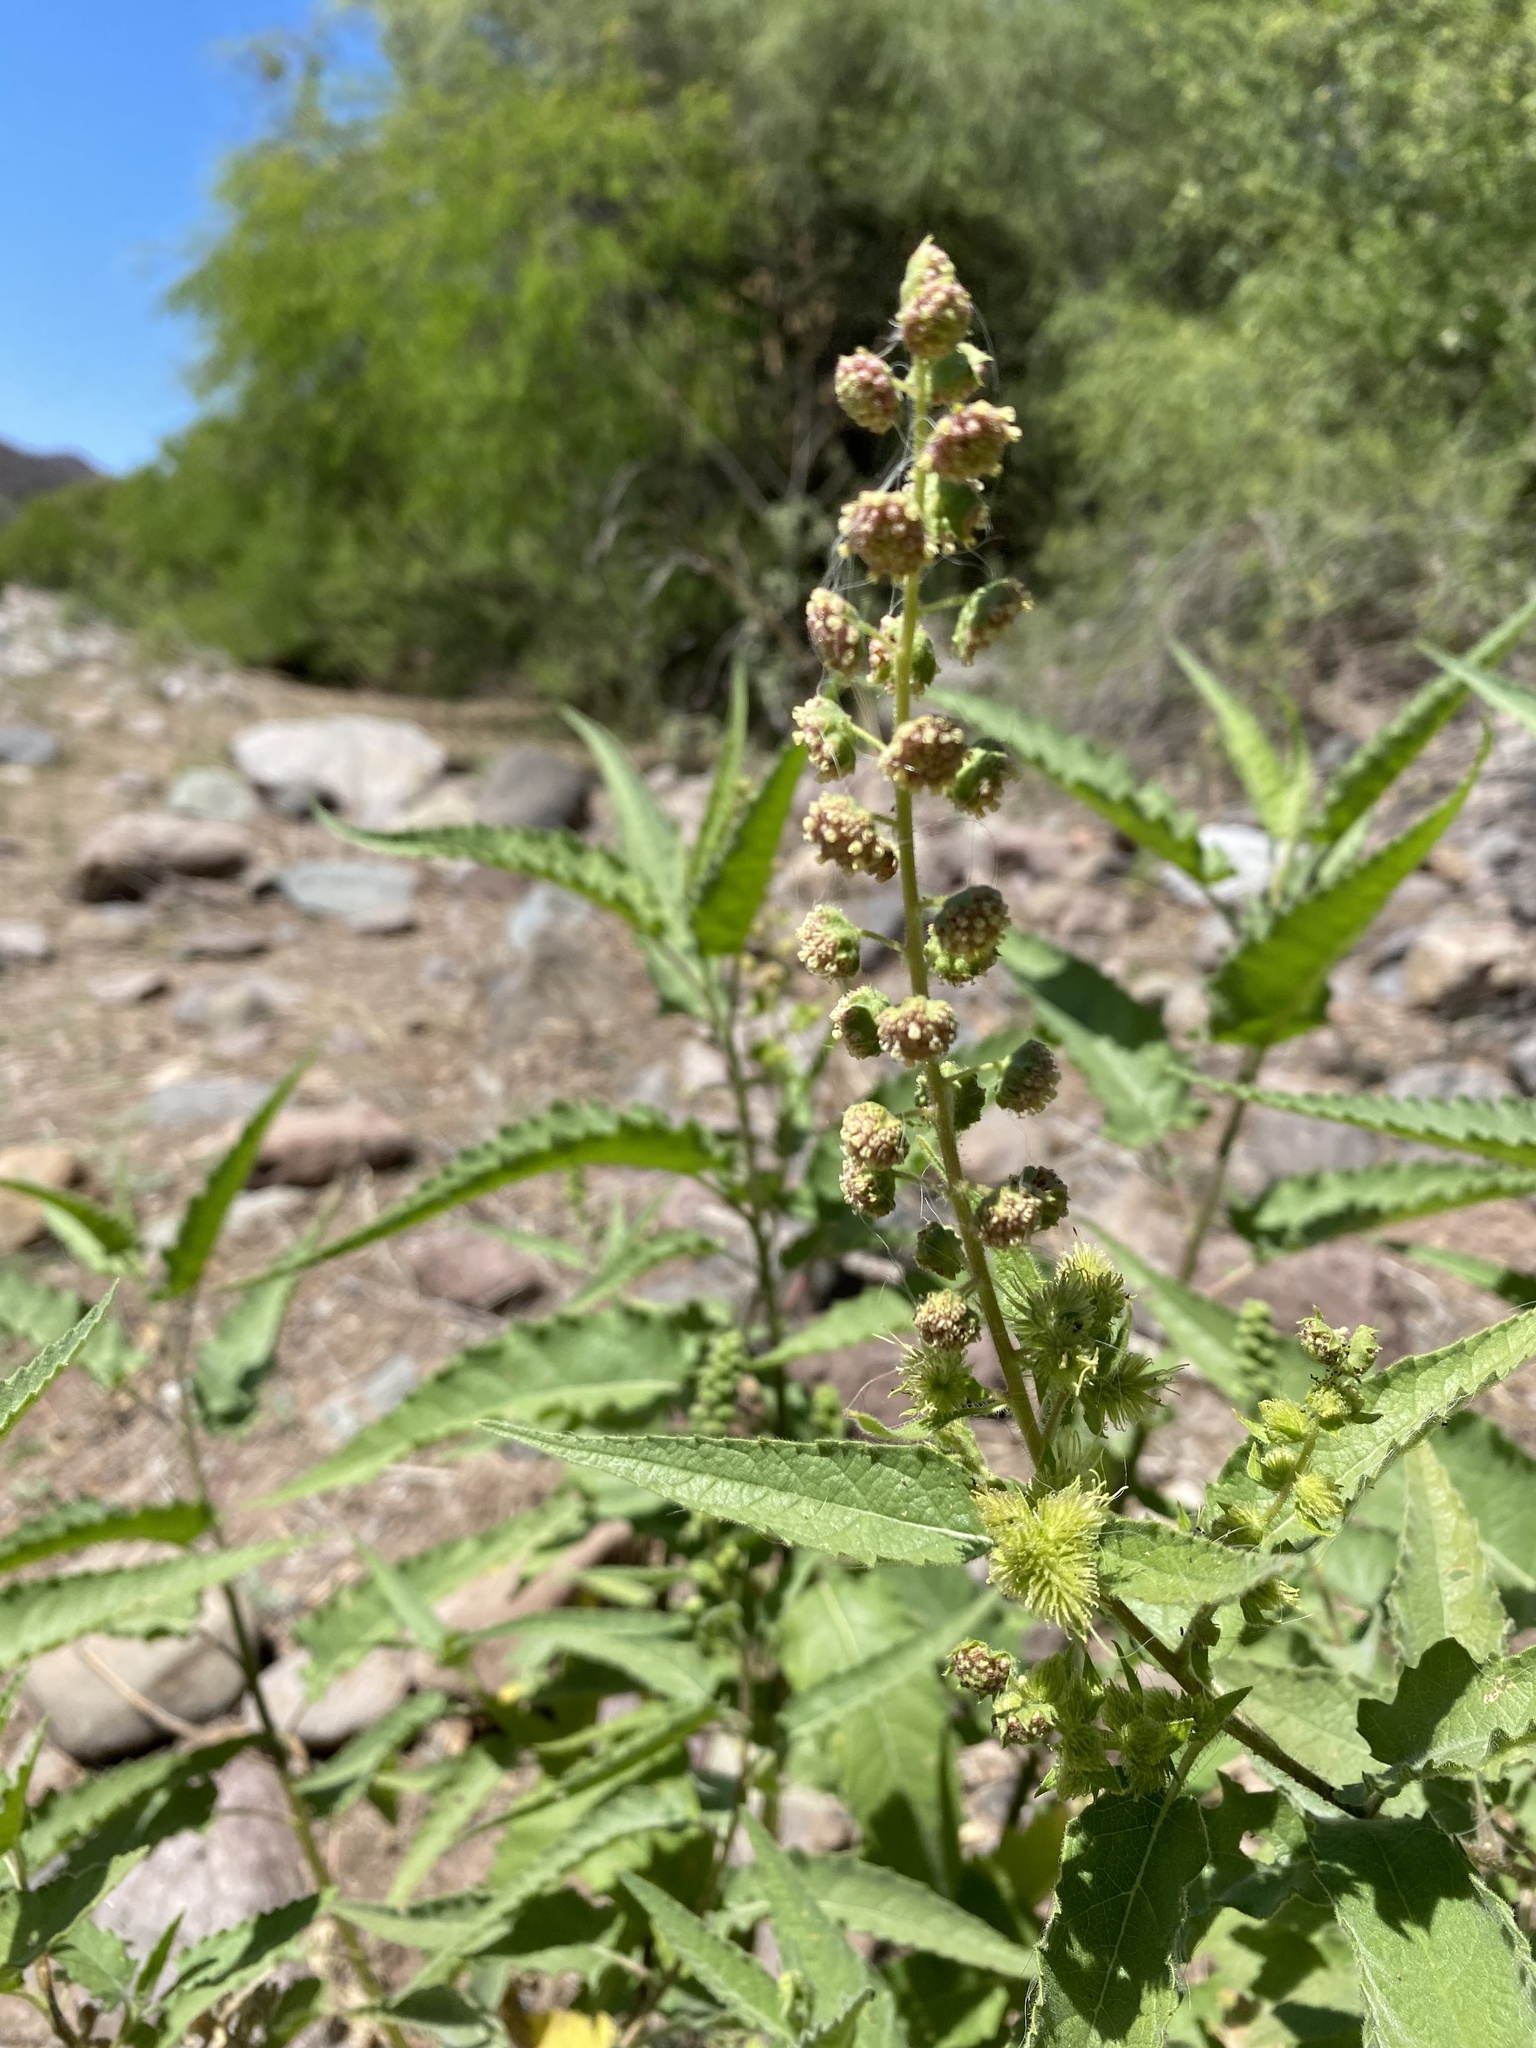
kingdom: Plantae
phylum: Tracheophyta
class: Magnoliopsida
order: Asterales
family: Asteraceae
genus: Ambrosia
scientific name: Ambrosia ambrosioides
